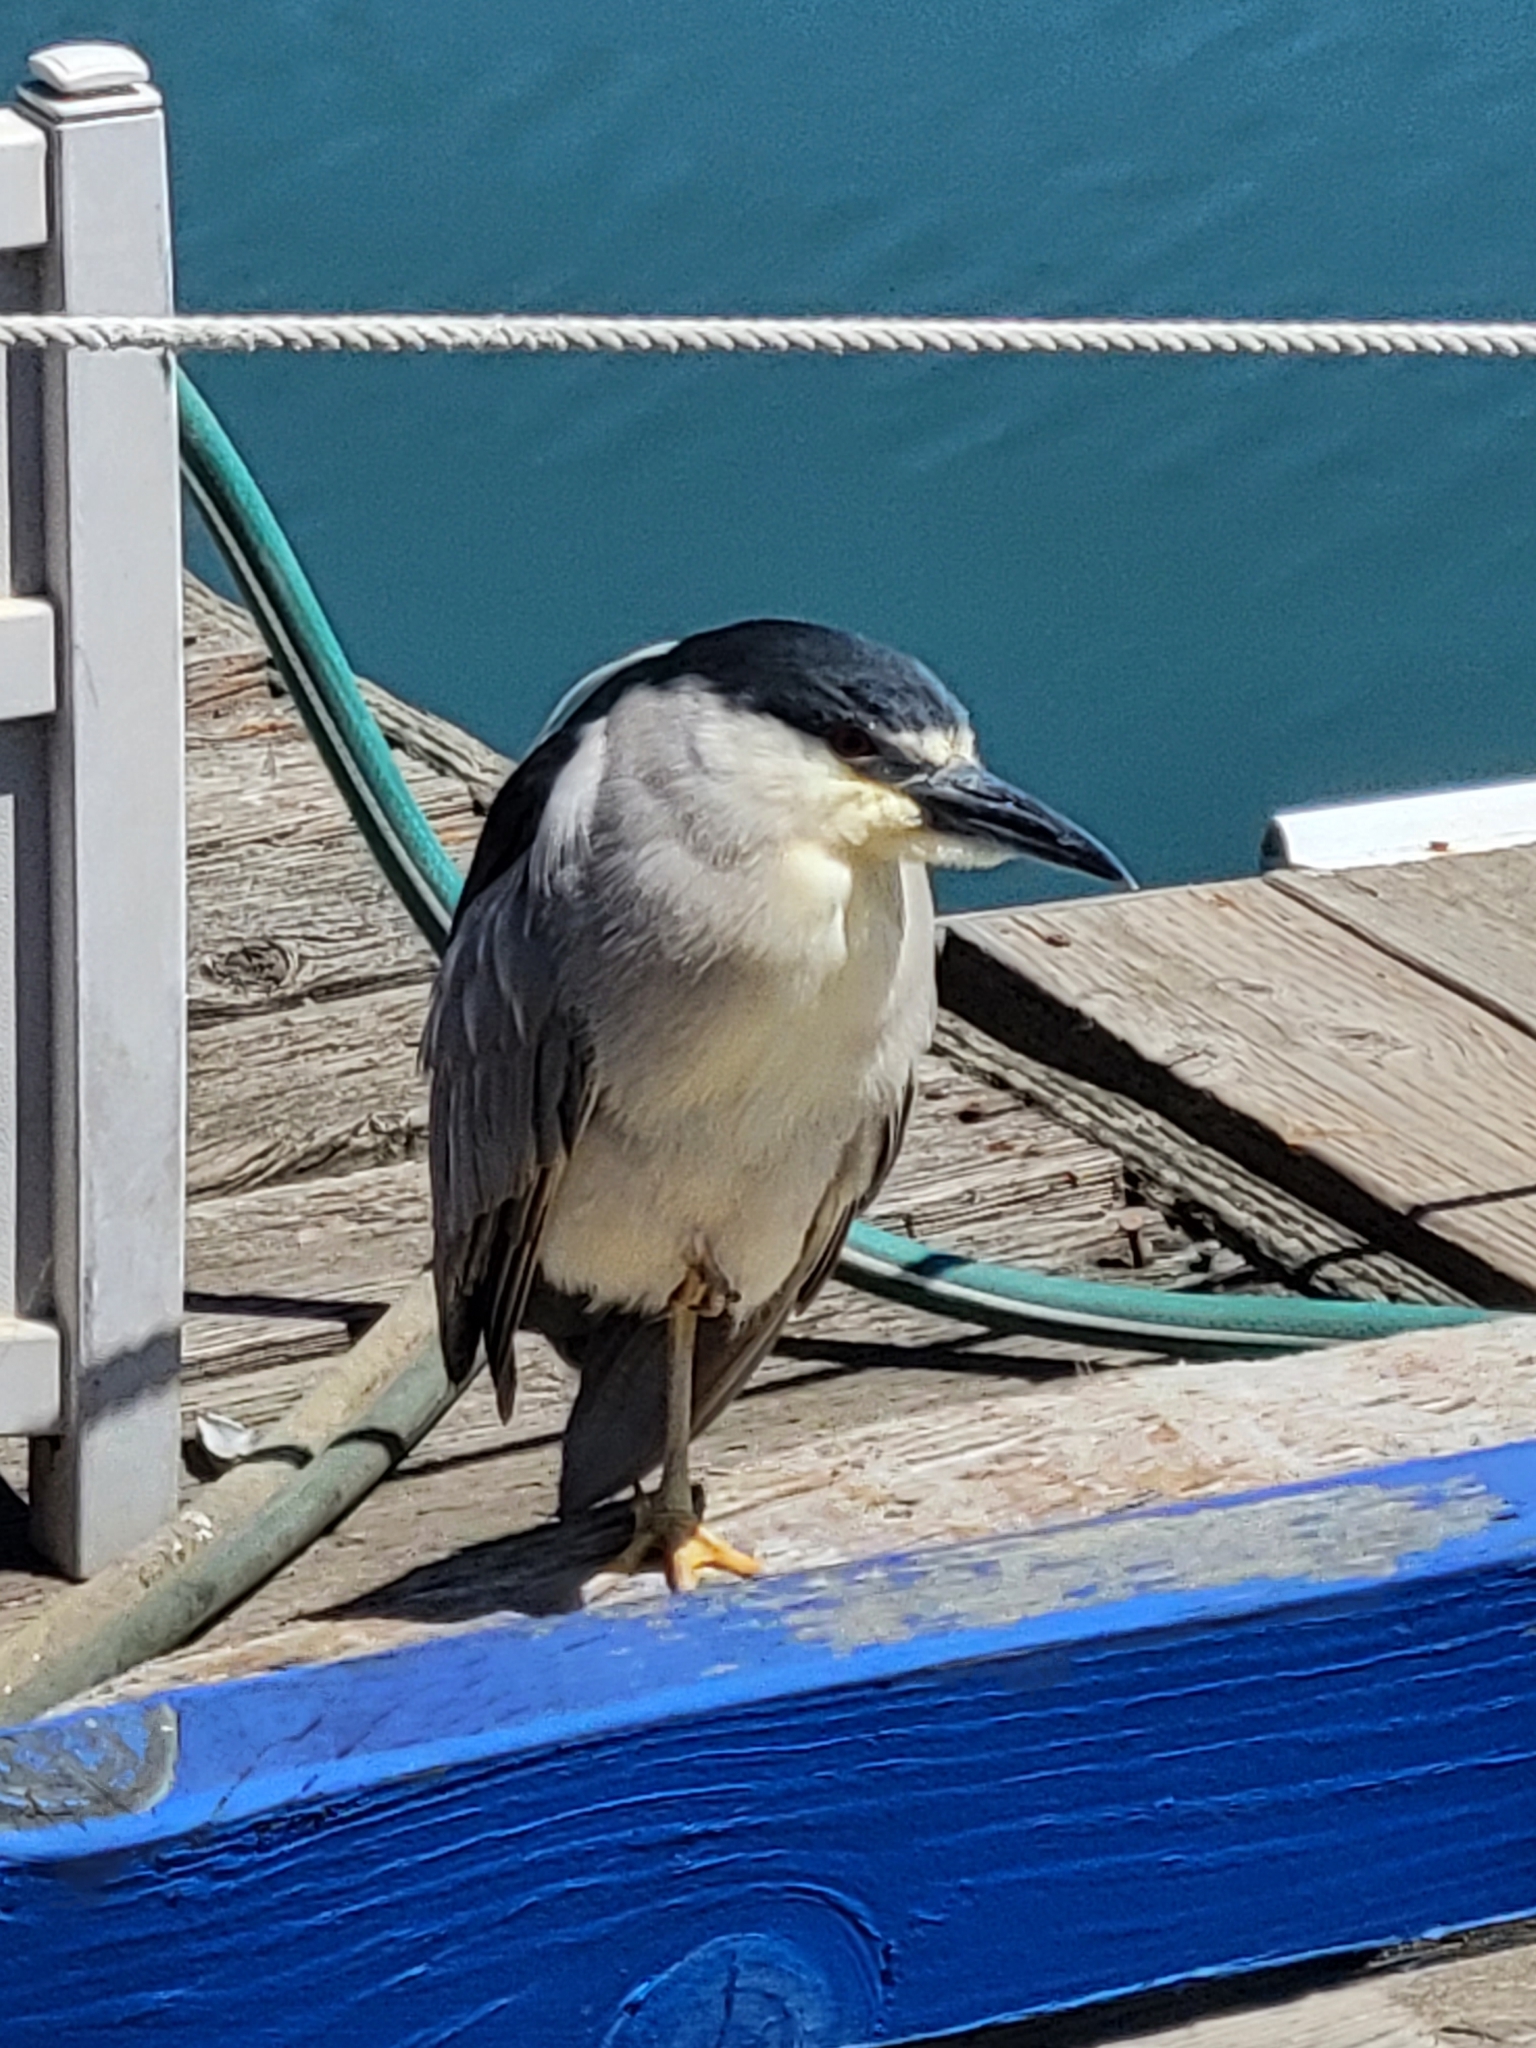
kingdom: Animalia
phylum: Chordata
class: Aves
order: Pelecaniformes
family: Ardeidae
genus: Nycticorax
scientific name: Nycticorax nycticorax
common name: Black-crowned night heron
